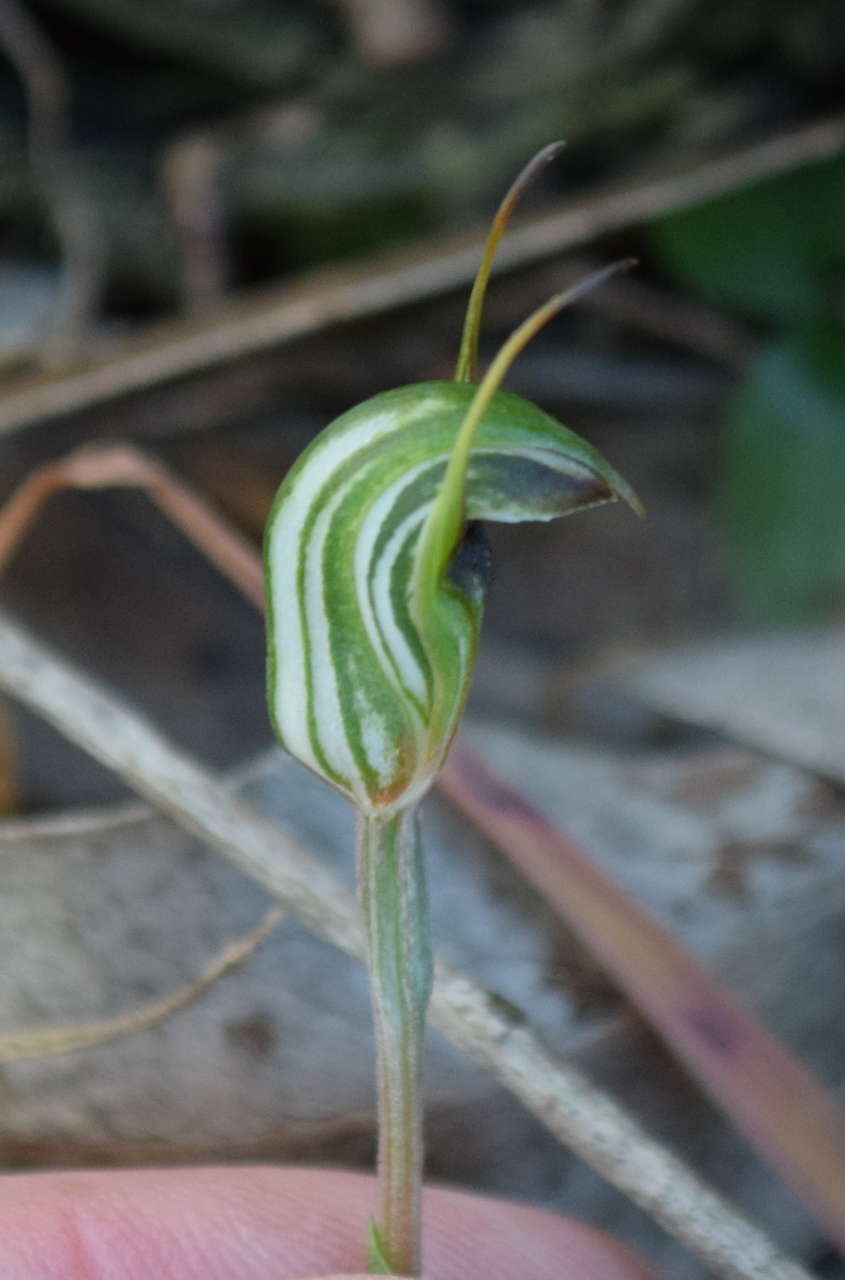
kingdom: Plantae
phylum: Tracheophyta
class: Liliopsida
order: Asparagales
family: Orchidaceae
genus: Pterostylis
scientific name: Pterostylis concinna
